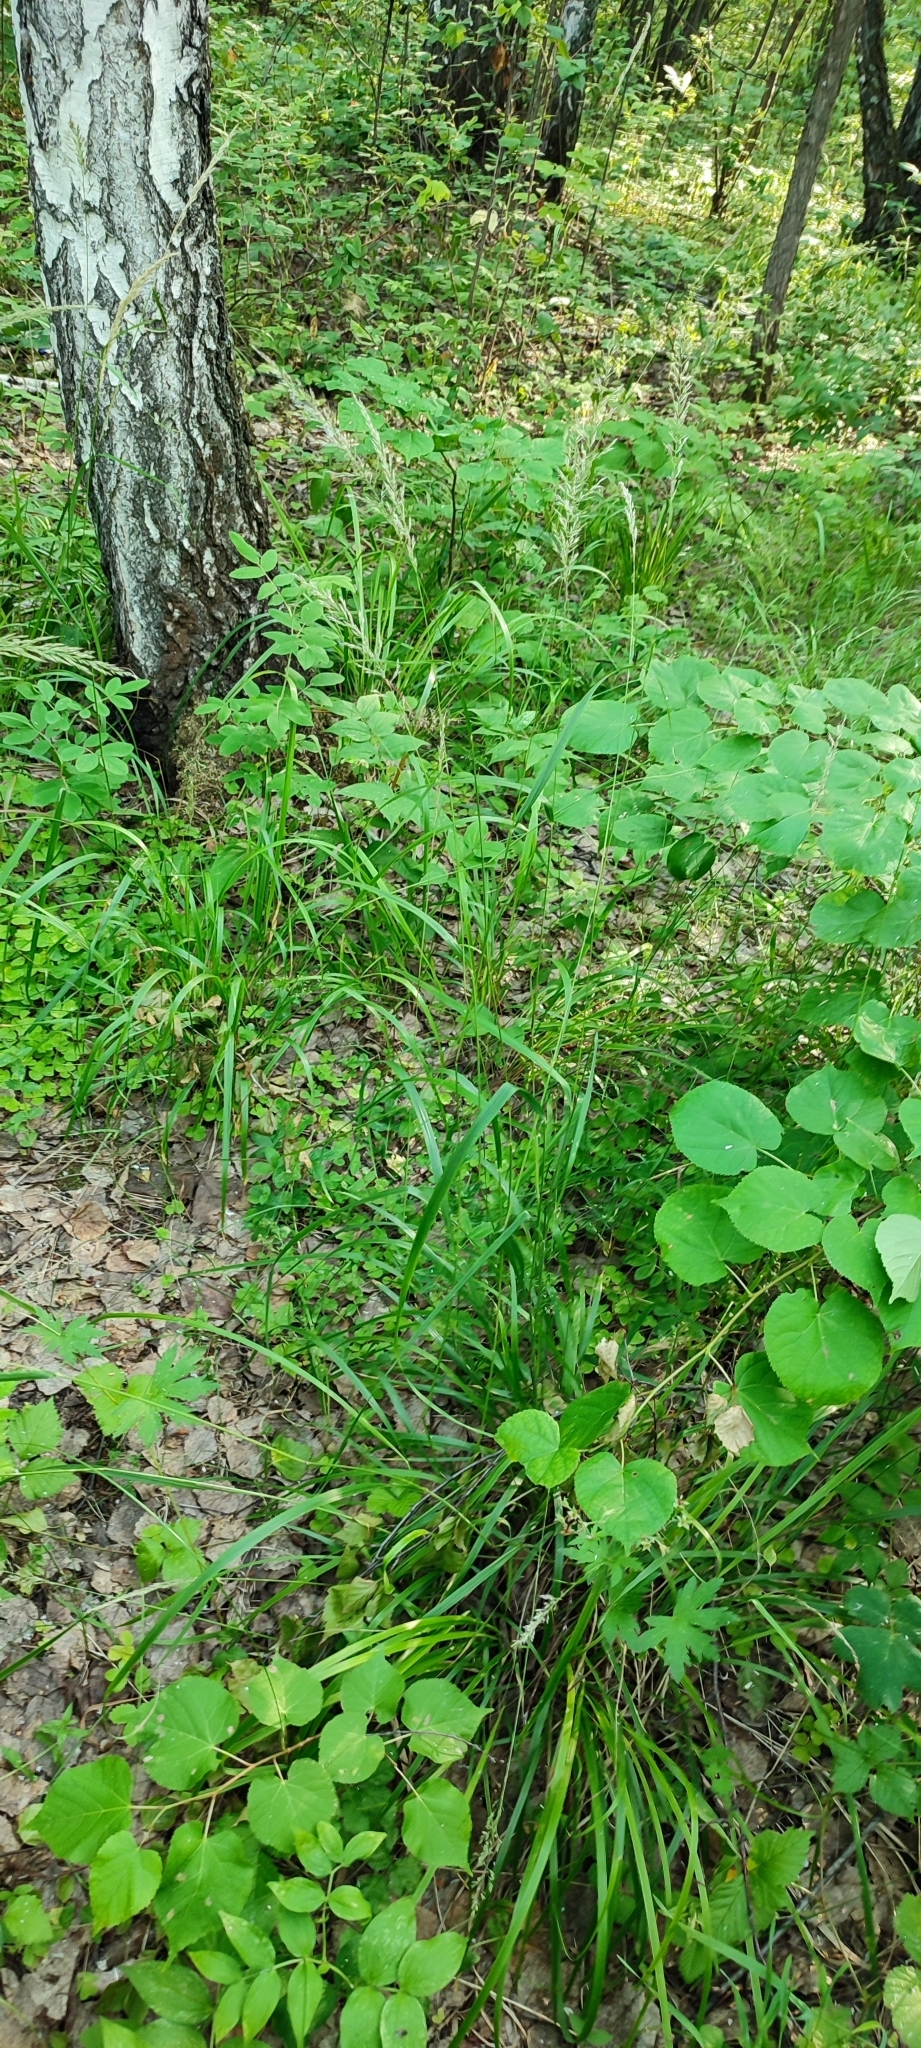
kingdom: Plantae
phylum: Tracheophyta
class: Liliopsida
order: Poales
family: Poaceae
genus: Calamagrostis
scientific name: Calamagrostis arundinacea
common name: Metskastik
